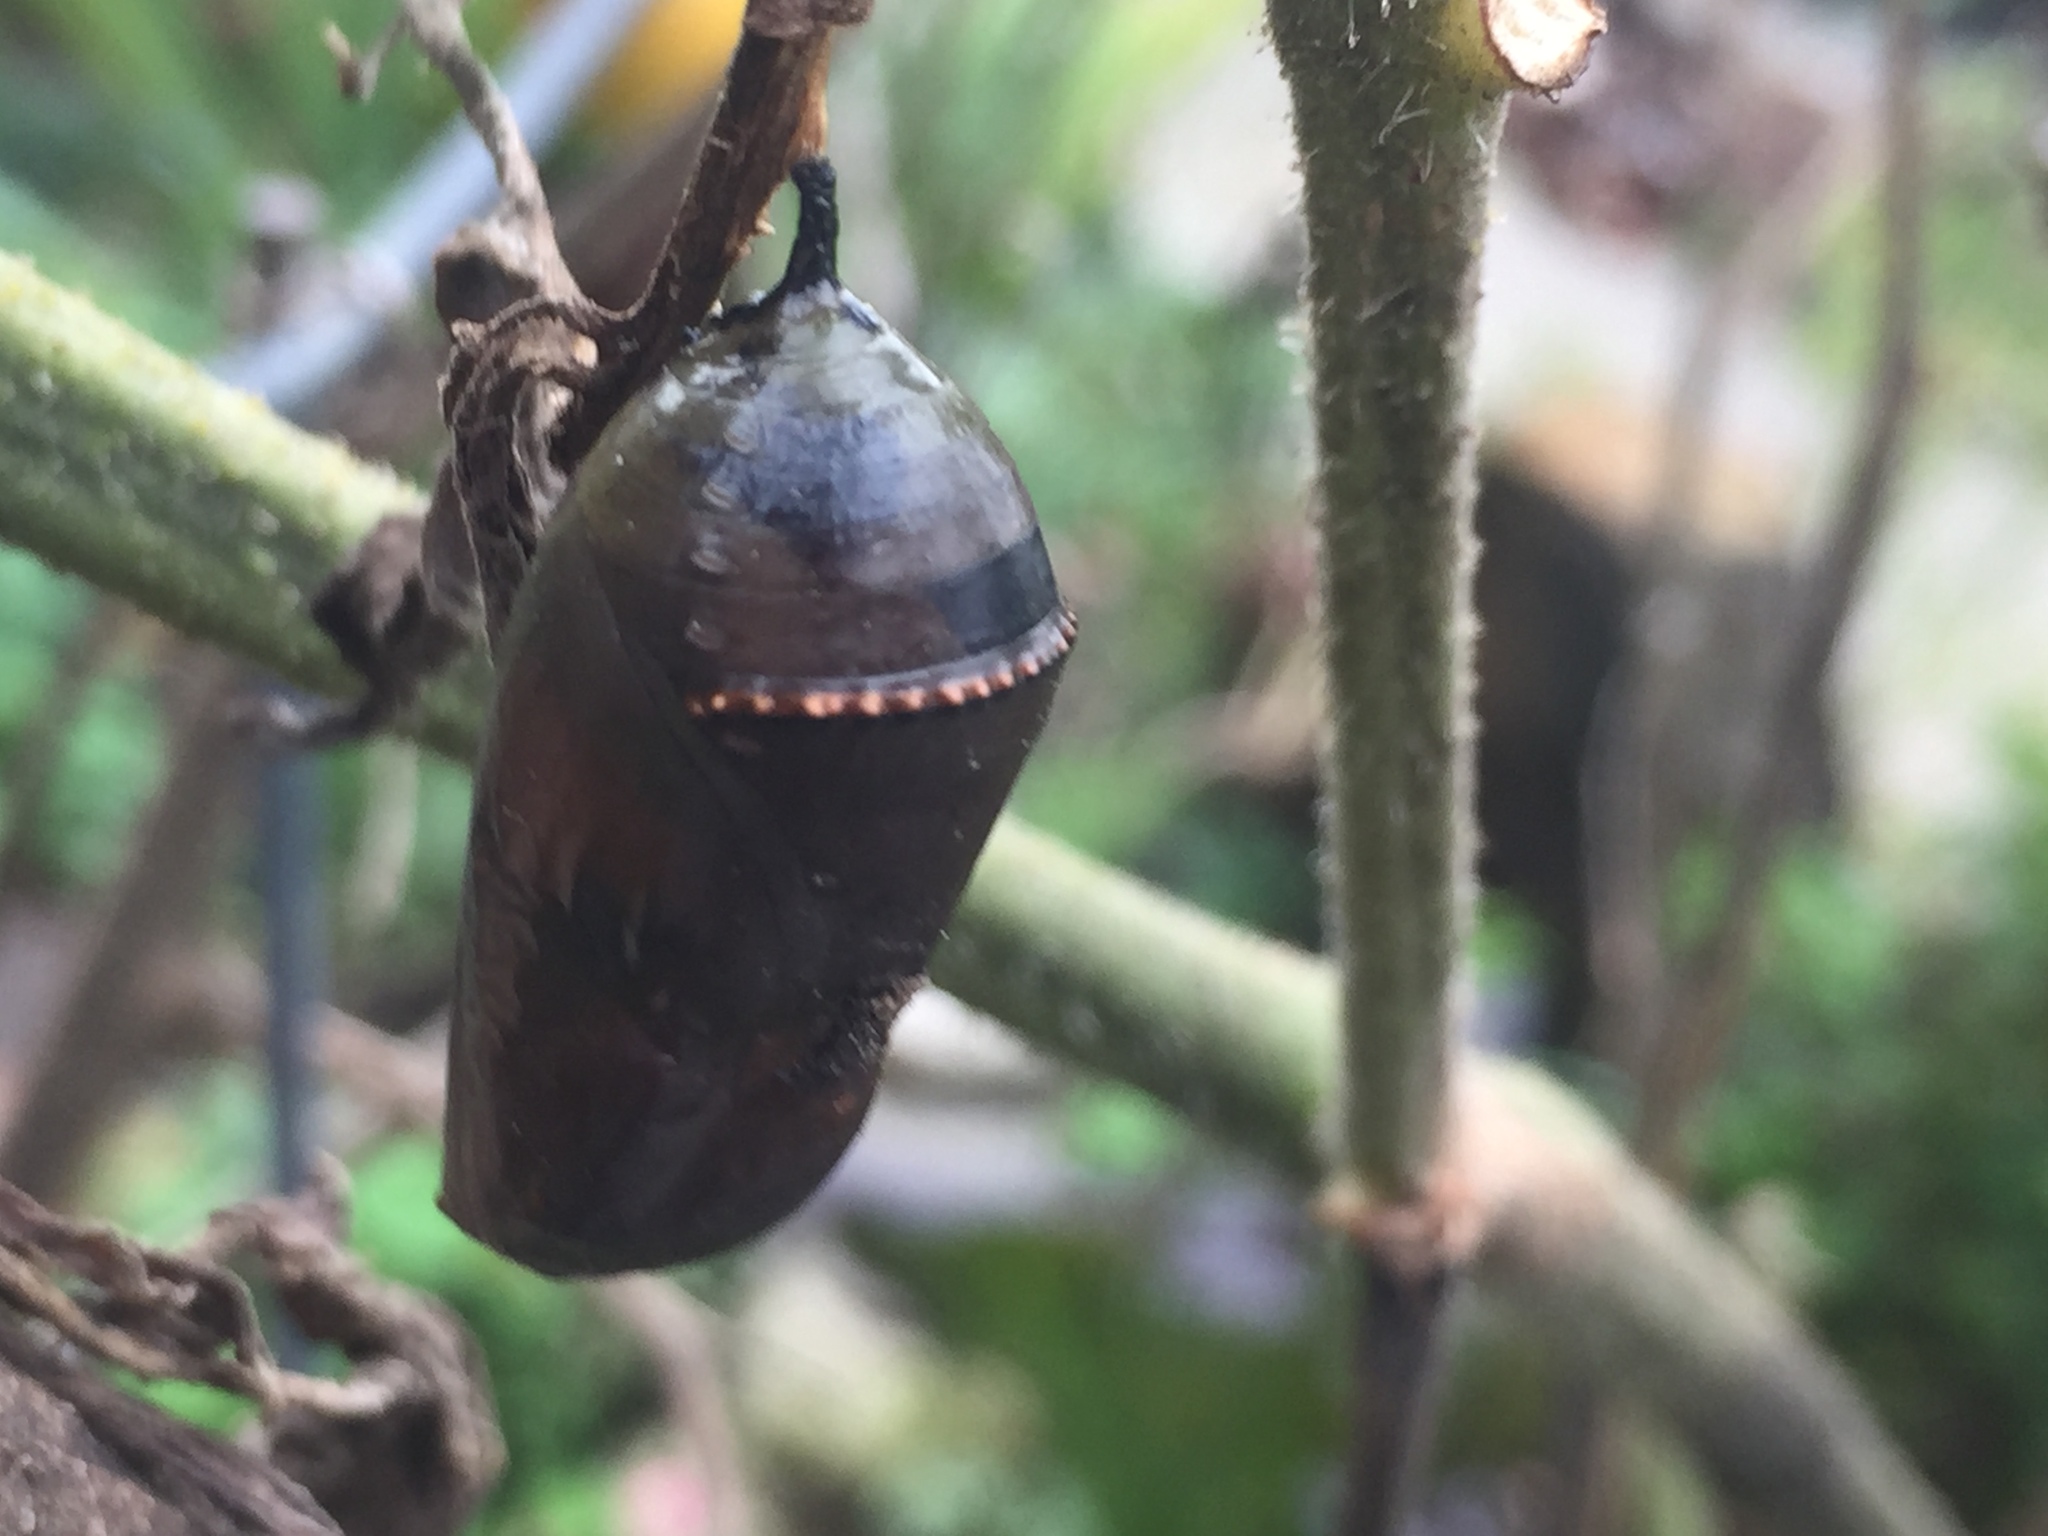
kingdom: Animalia
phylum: Arthropoda
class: Insecta
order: Lepidoptera
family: Nymphalidae
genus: Danaus
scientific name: Danaus plexippus
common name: Monarch
